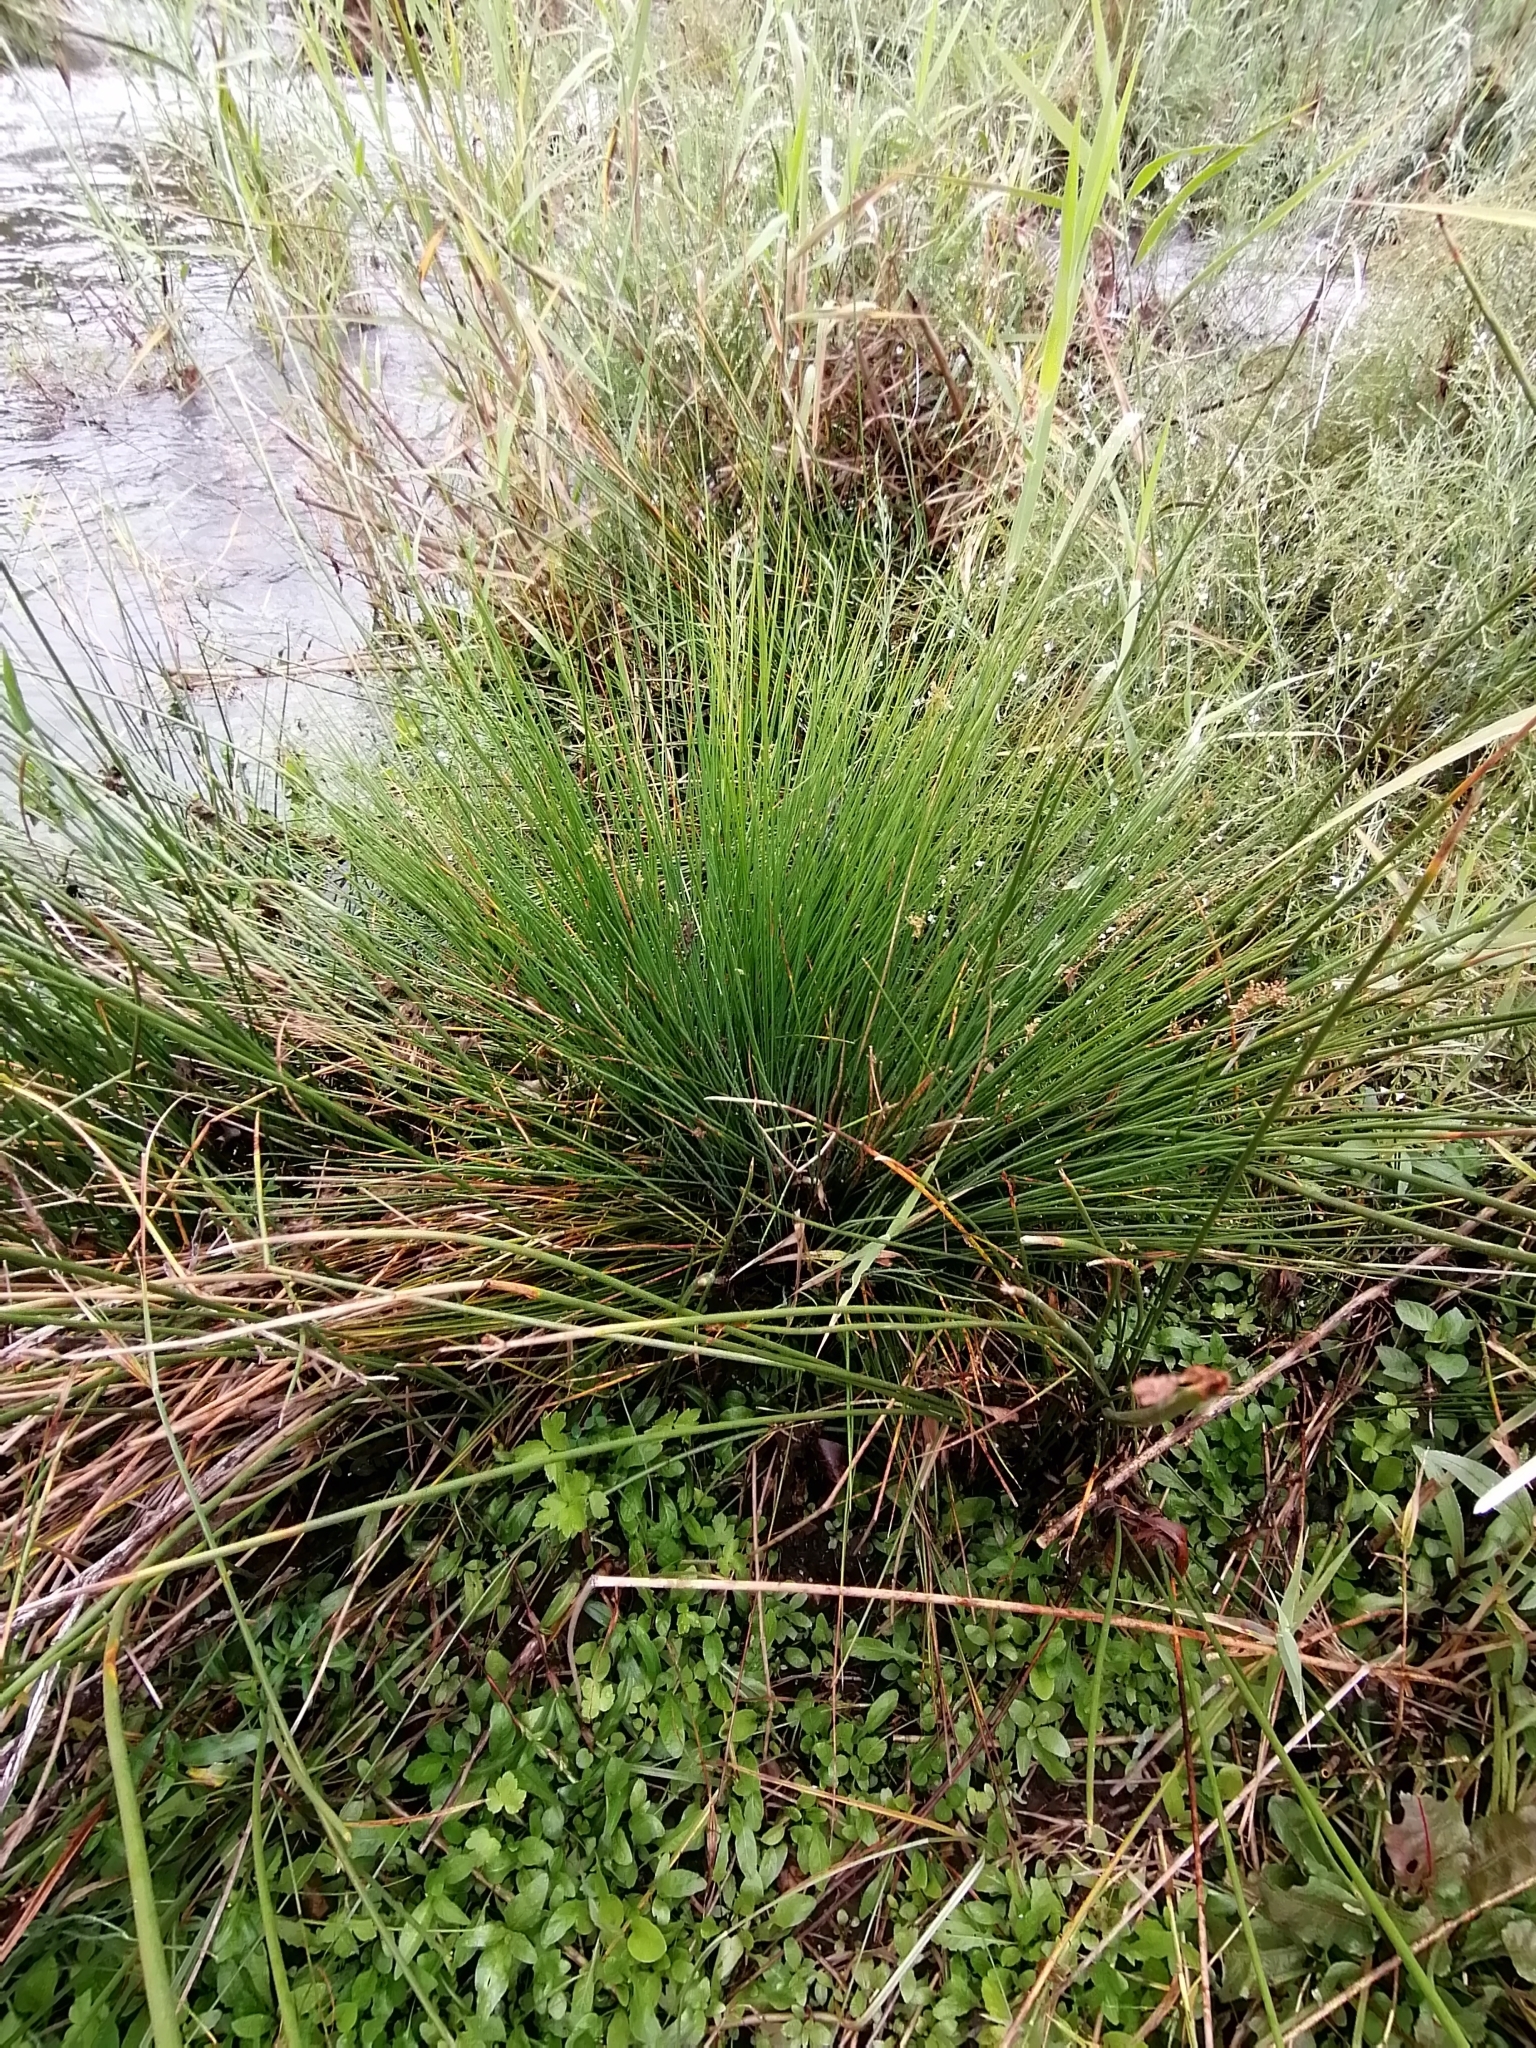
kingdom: Plantae
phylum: Tracheophyta
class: Liliopsida
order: Poales
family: Juncaceae
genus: Juncus
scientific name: Juncus effusus
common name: Soft rush
